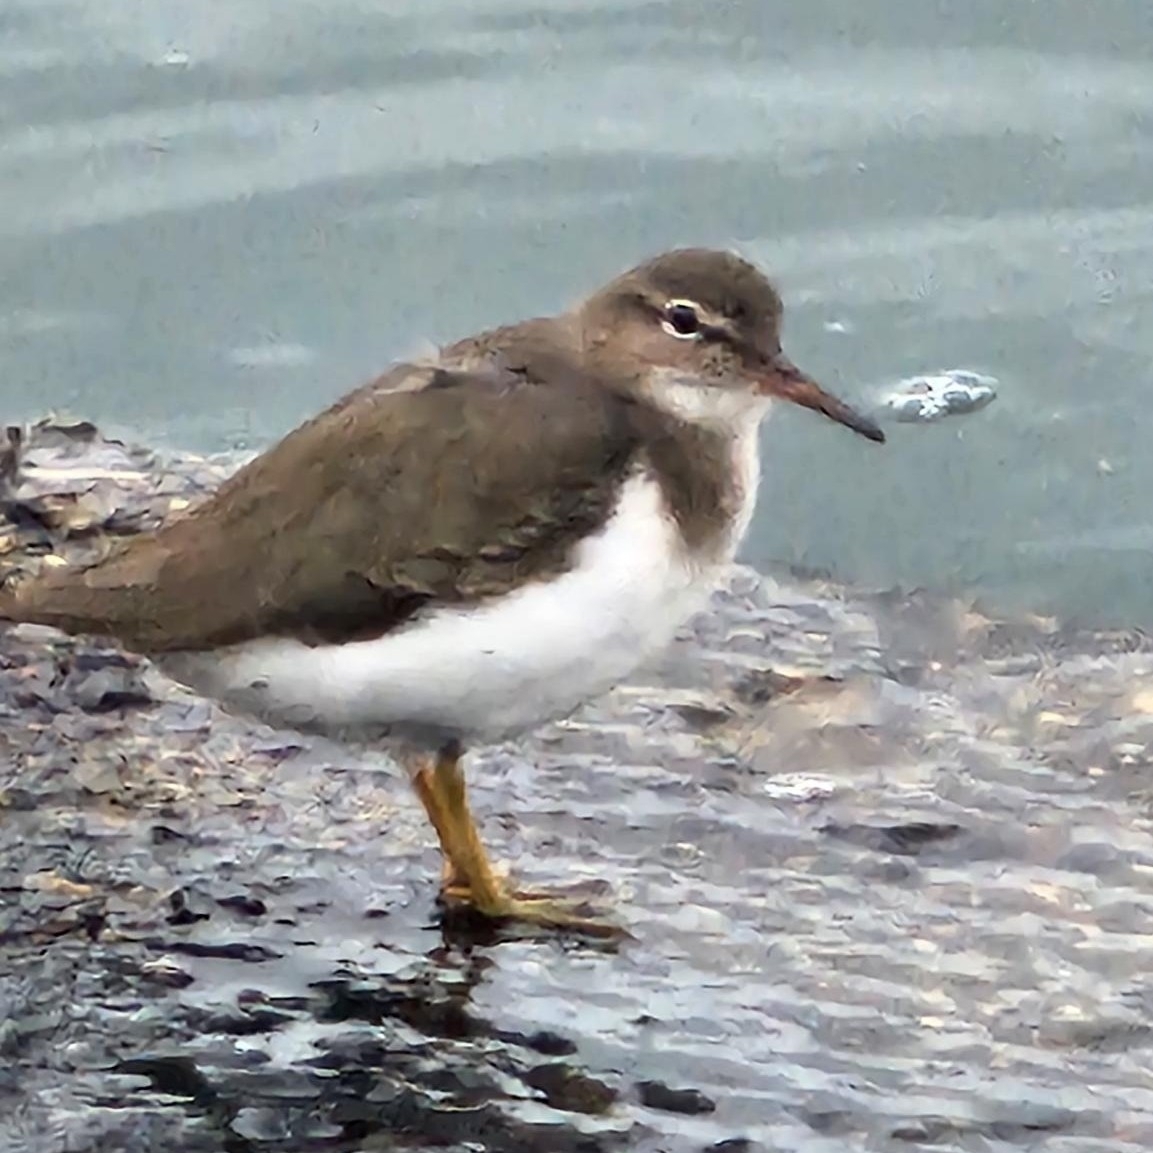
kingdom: Animalia
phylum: Chordata
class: Aves
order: Charadriiformes
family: Scolopacidae
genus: Actitis
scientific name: Actitis macularius
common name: Spotted sandpiper
